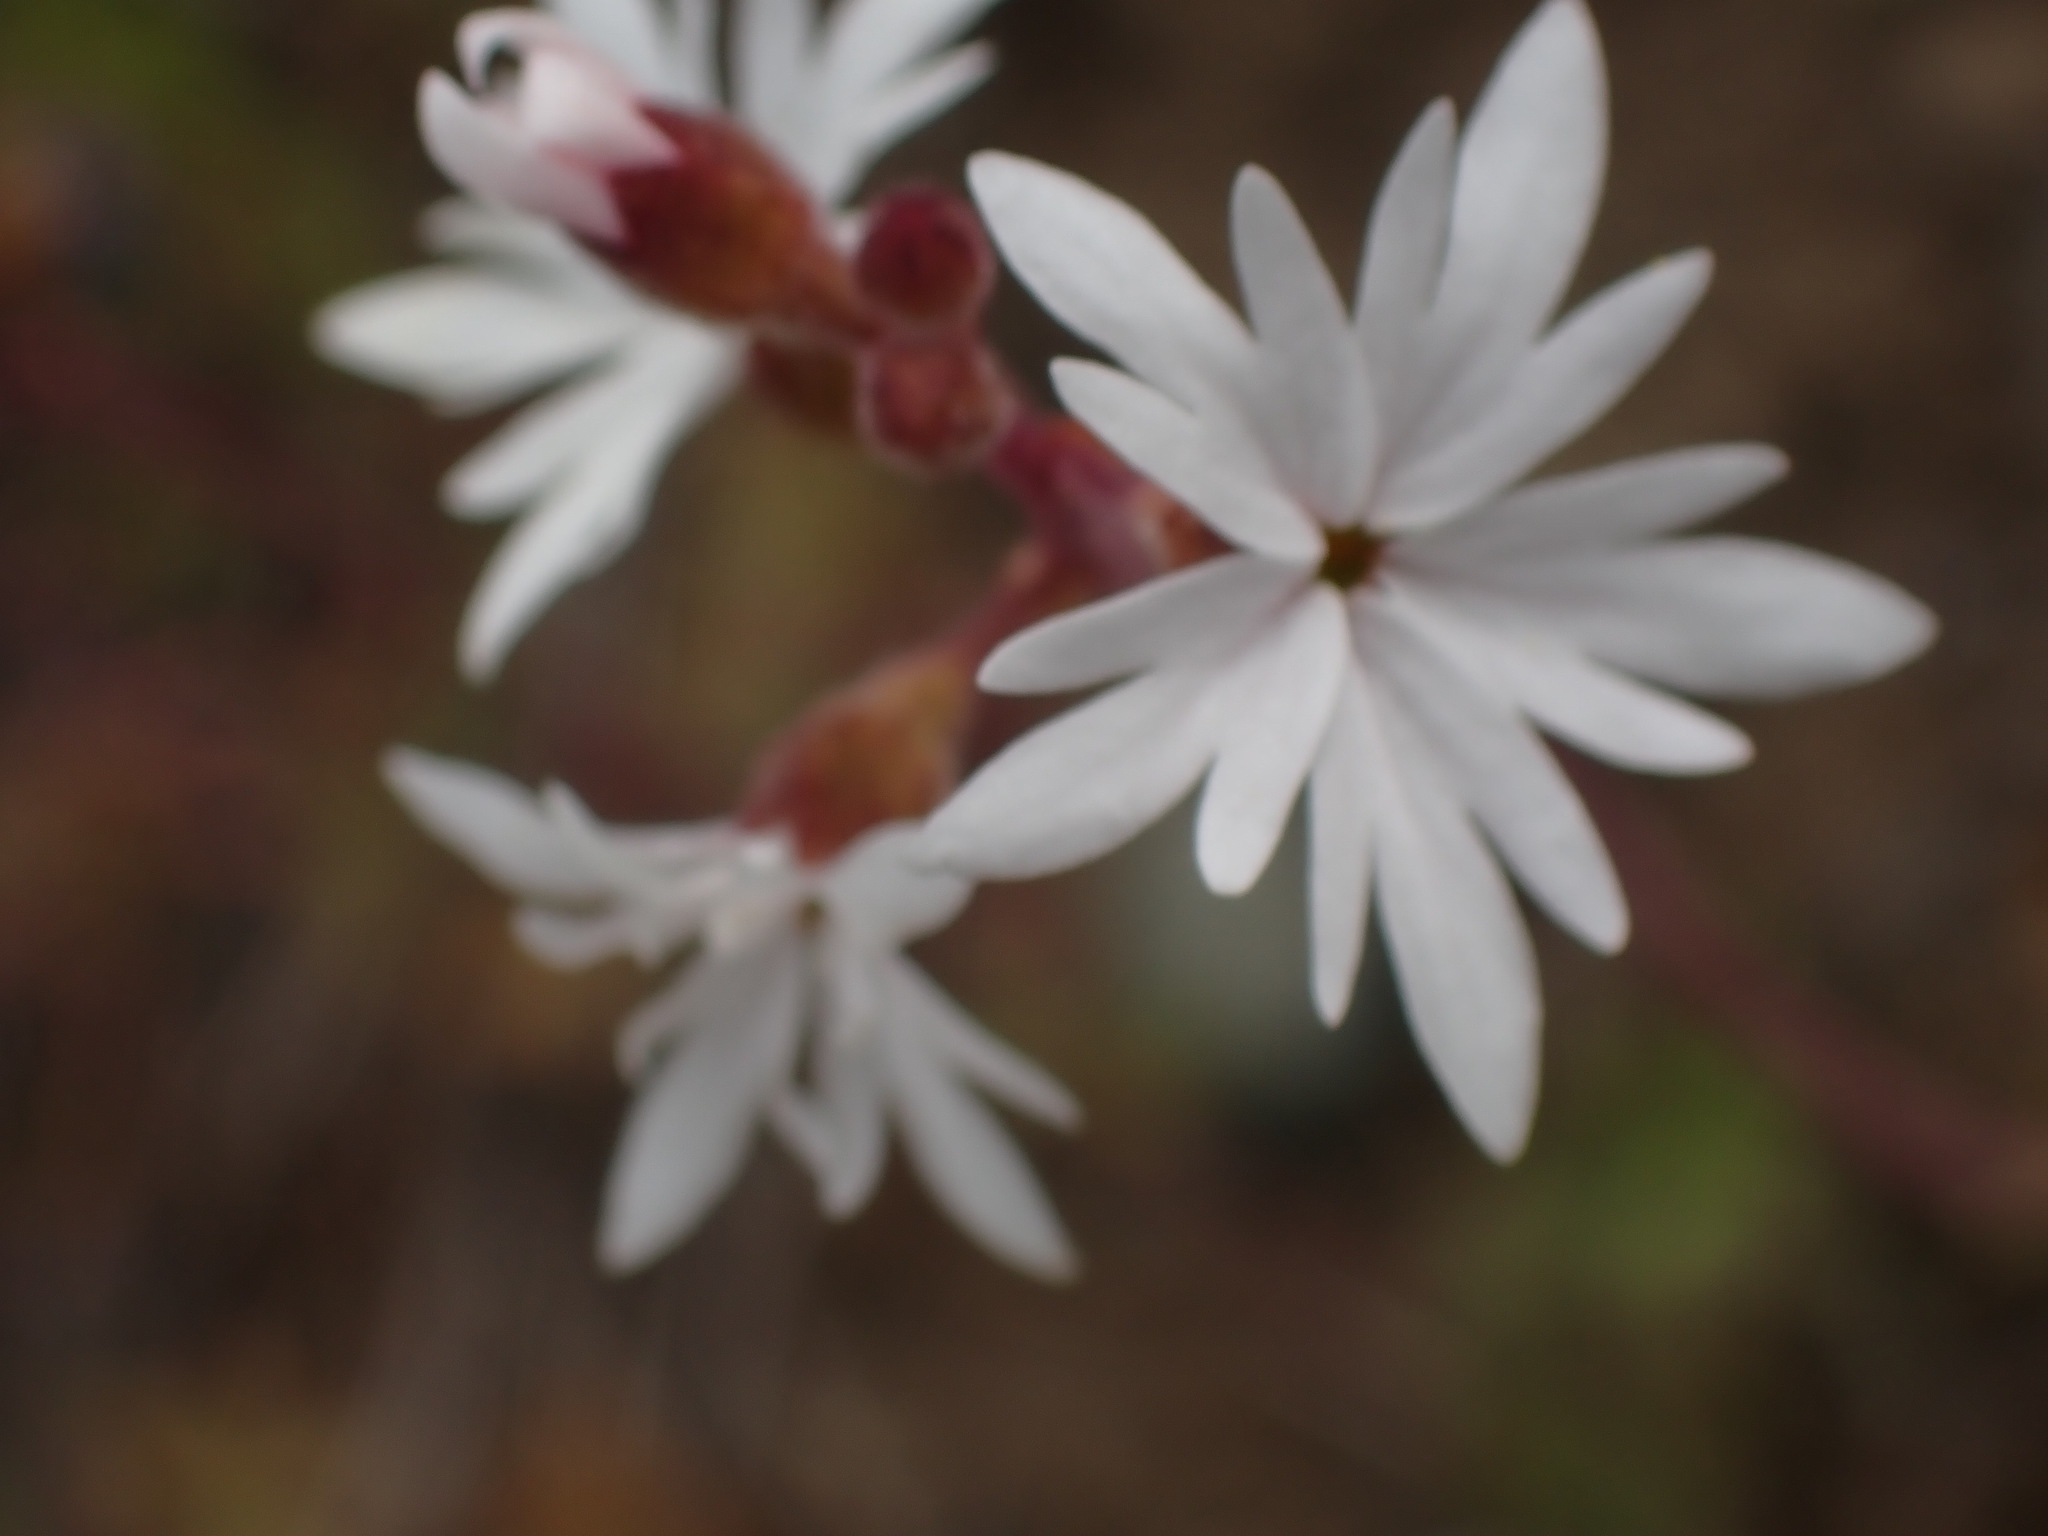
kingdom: Plantae
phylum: Tracheophyta
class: Magnoliopsida
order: Saxifragales
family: Saxifragaceae
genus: Lithophragma
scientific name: Lithophragma parviflorum
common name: Small-flowered fringe-cup
